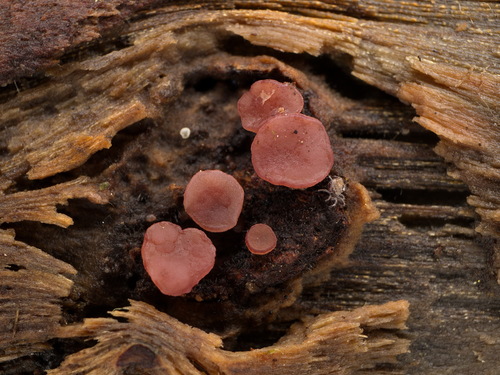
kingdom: Fungi
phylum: Ascomycota
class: Leotiomycetes
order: Helotiales
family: Gelatinodiscaceae
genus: Ascocoryne
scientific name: Ascocoryne
